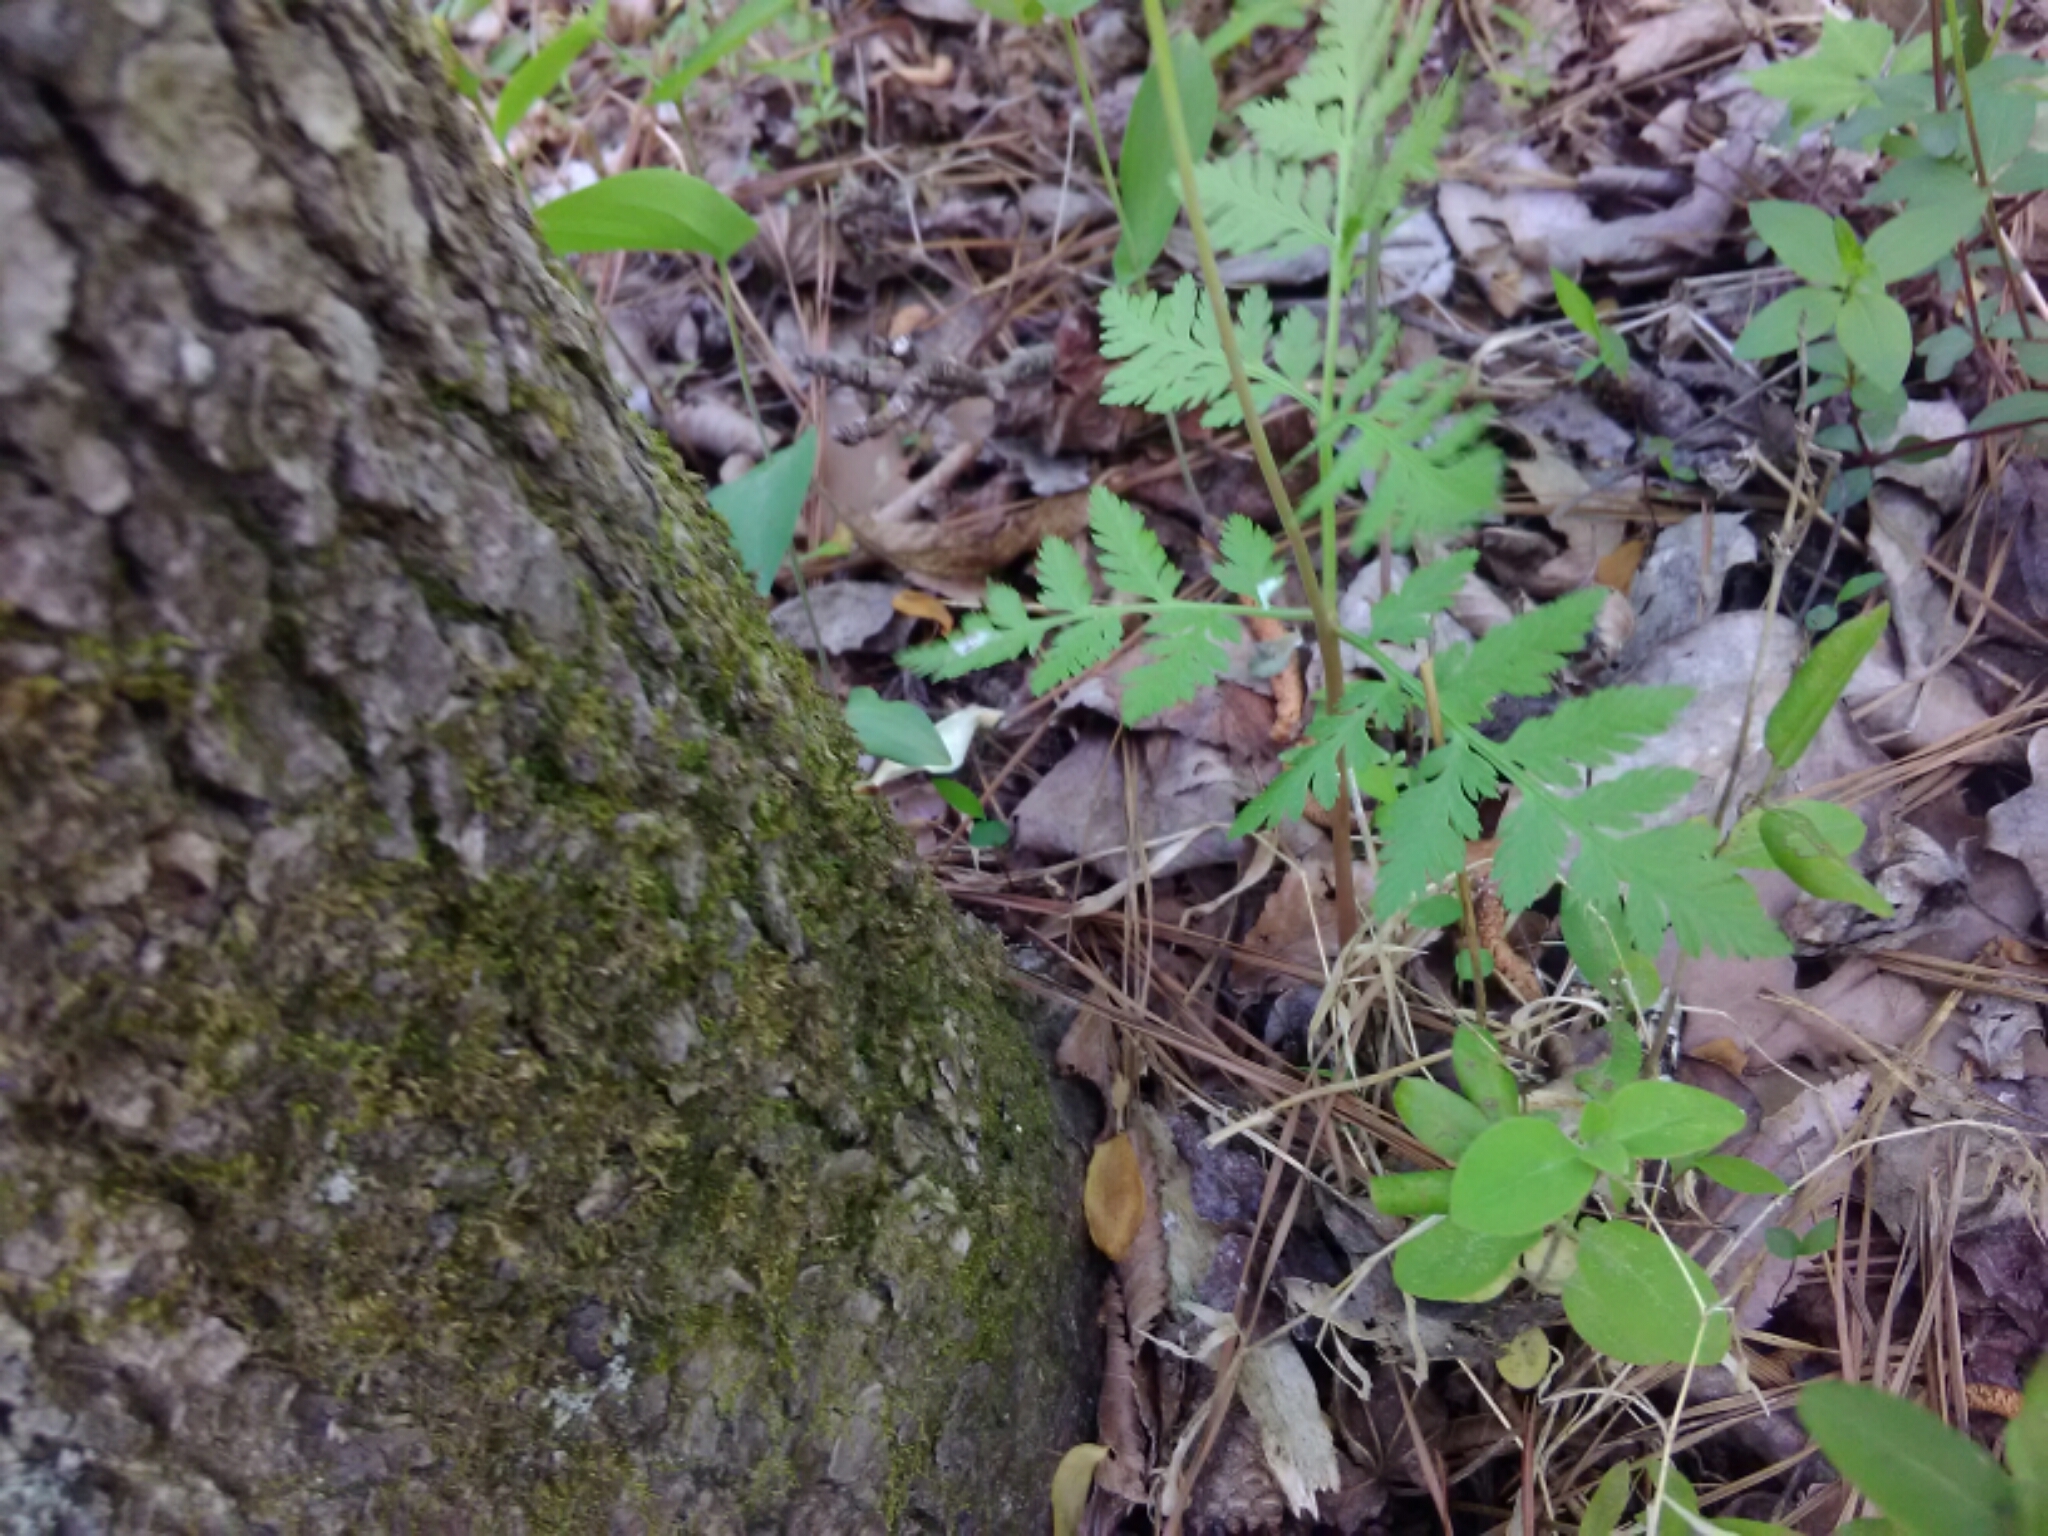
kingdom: Plantae
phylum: Tracheophyta
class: Polypodiopsida
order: Ophioglossales
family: Ophioglossaceae
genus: Botrypus
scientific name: Botrypus virginianus
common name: Common grapefern
